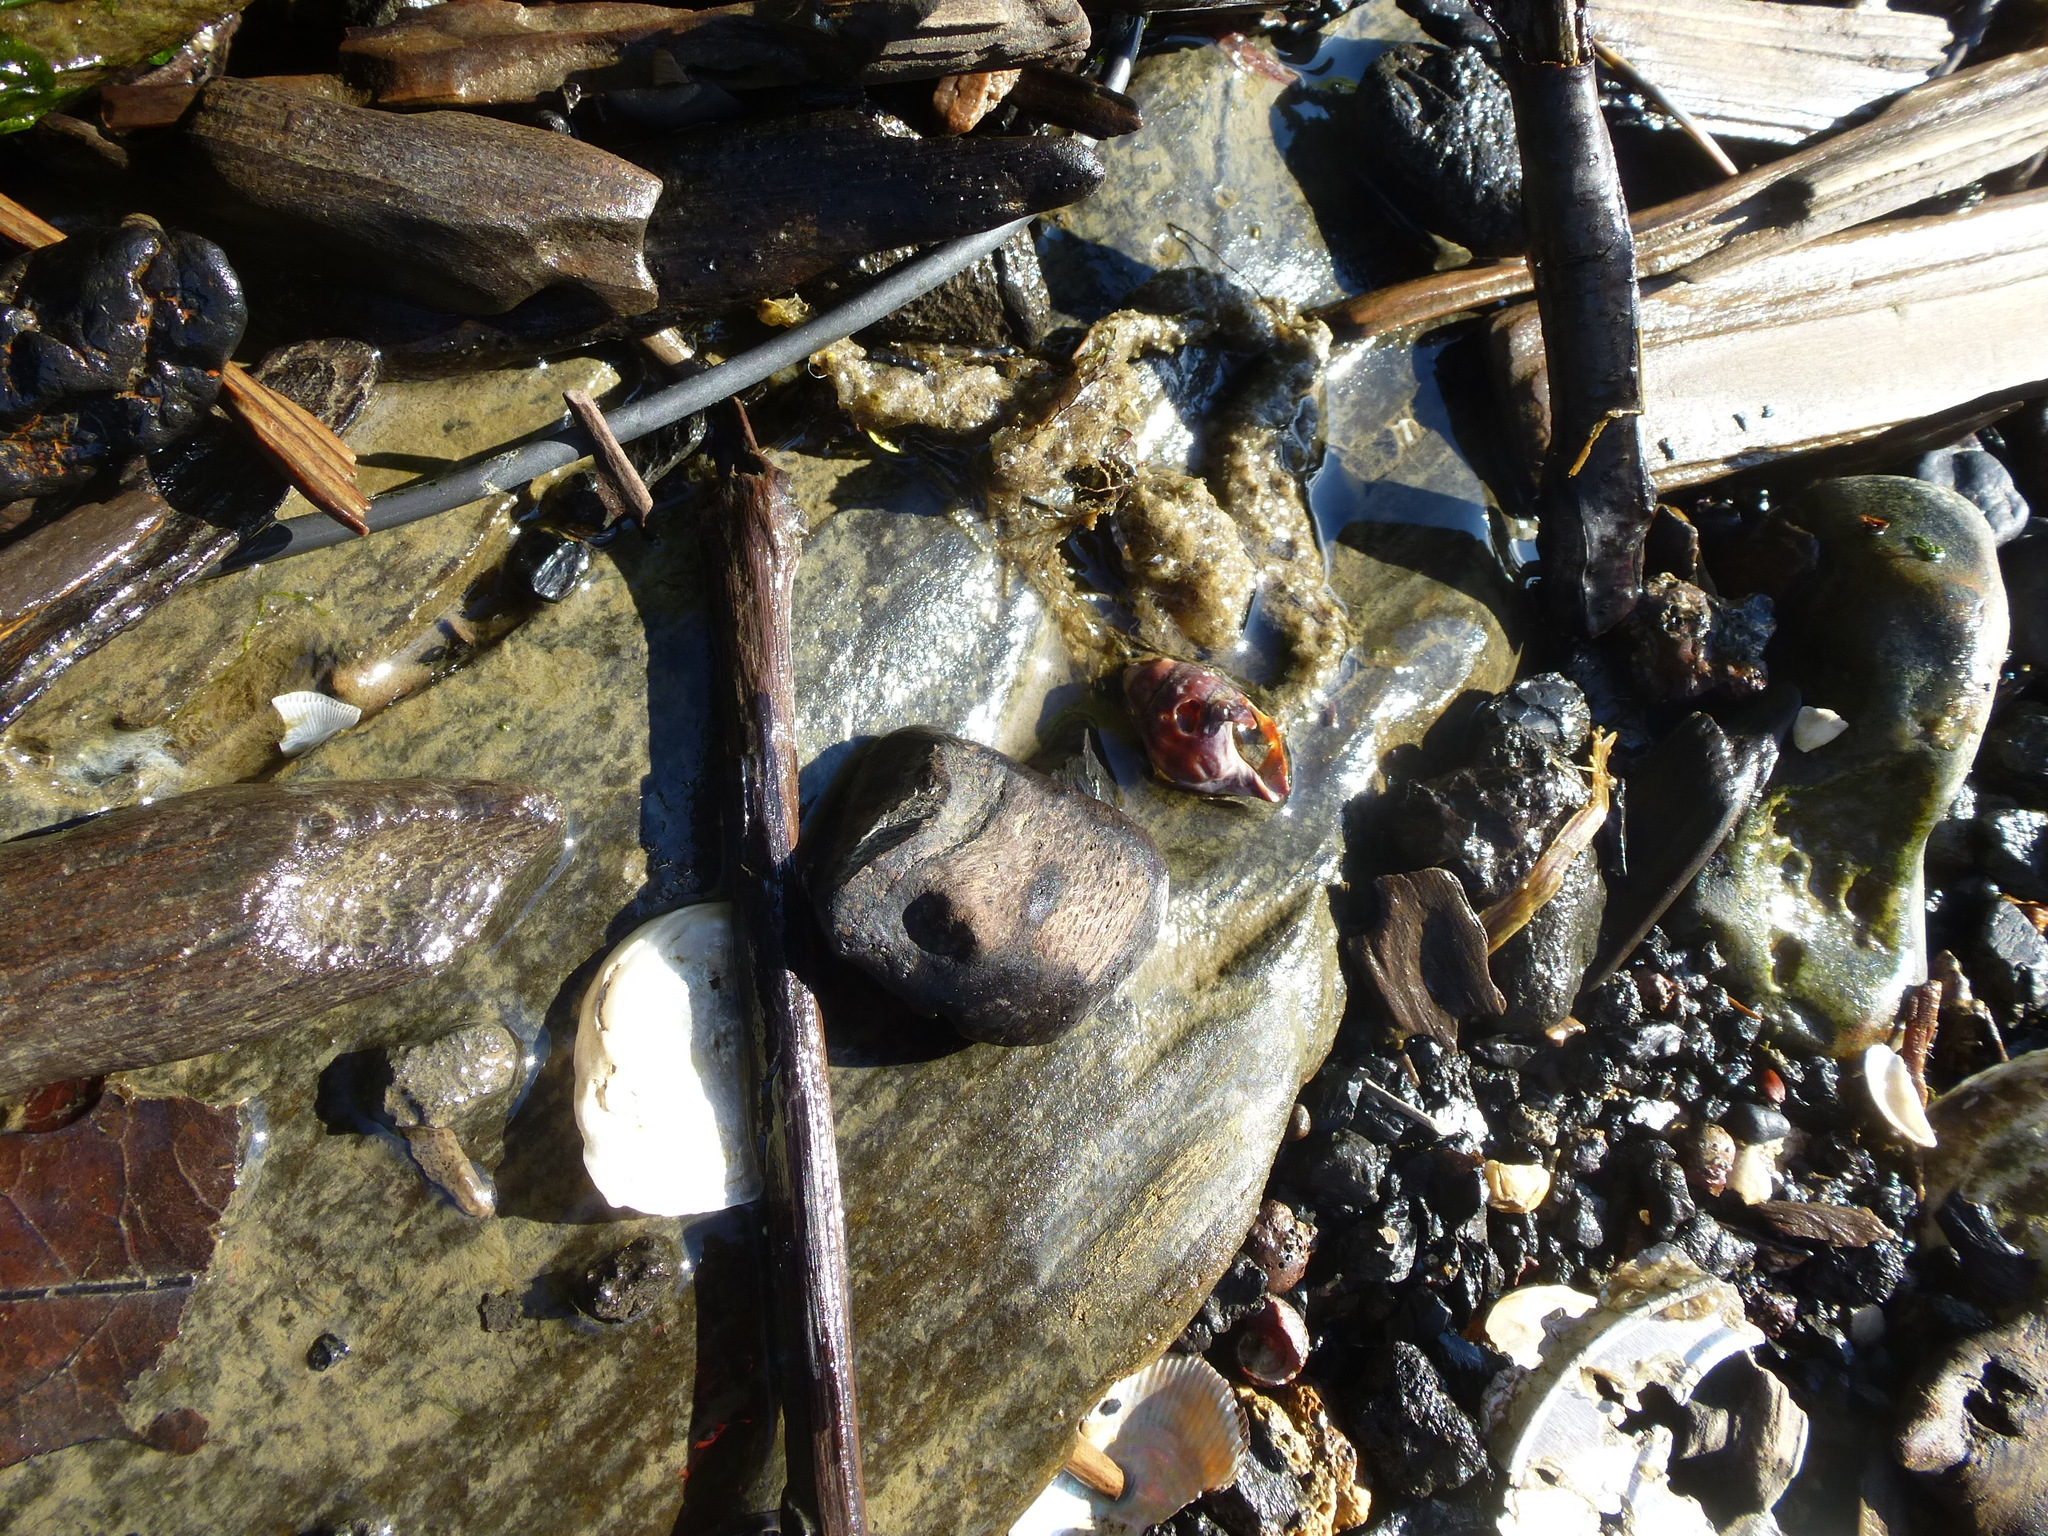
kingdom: Animalia
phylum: Mollusca
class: Gastropoda
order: Neogastropoda
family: Nassariidae
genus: Ilyanassa
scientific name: Ilyanassa obsoleta
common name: Eastern mudsnail
